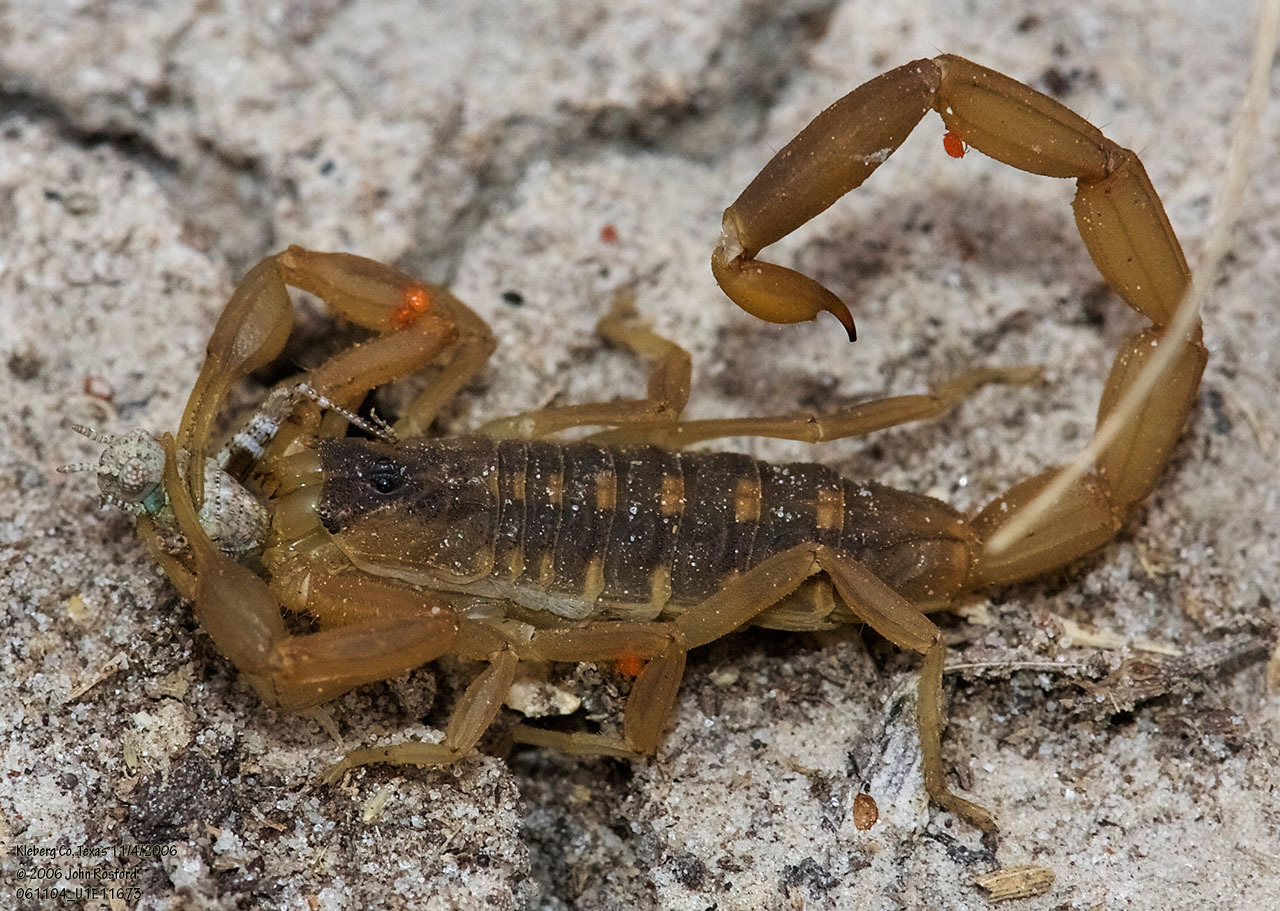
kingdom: Animalia
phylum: Arthropoda
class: Arachnida
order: Scorpiones
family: Buthidae
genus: Centruroides
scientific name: Centruroides vittatus
